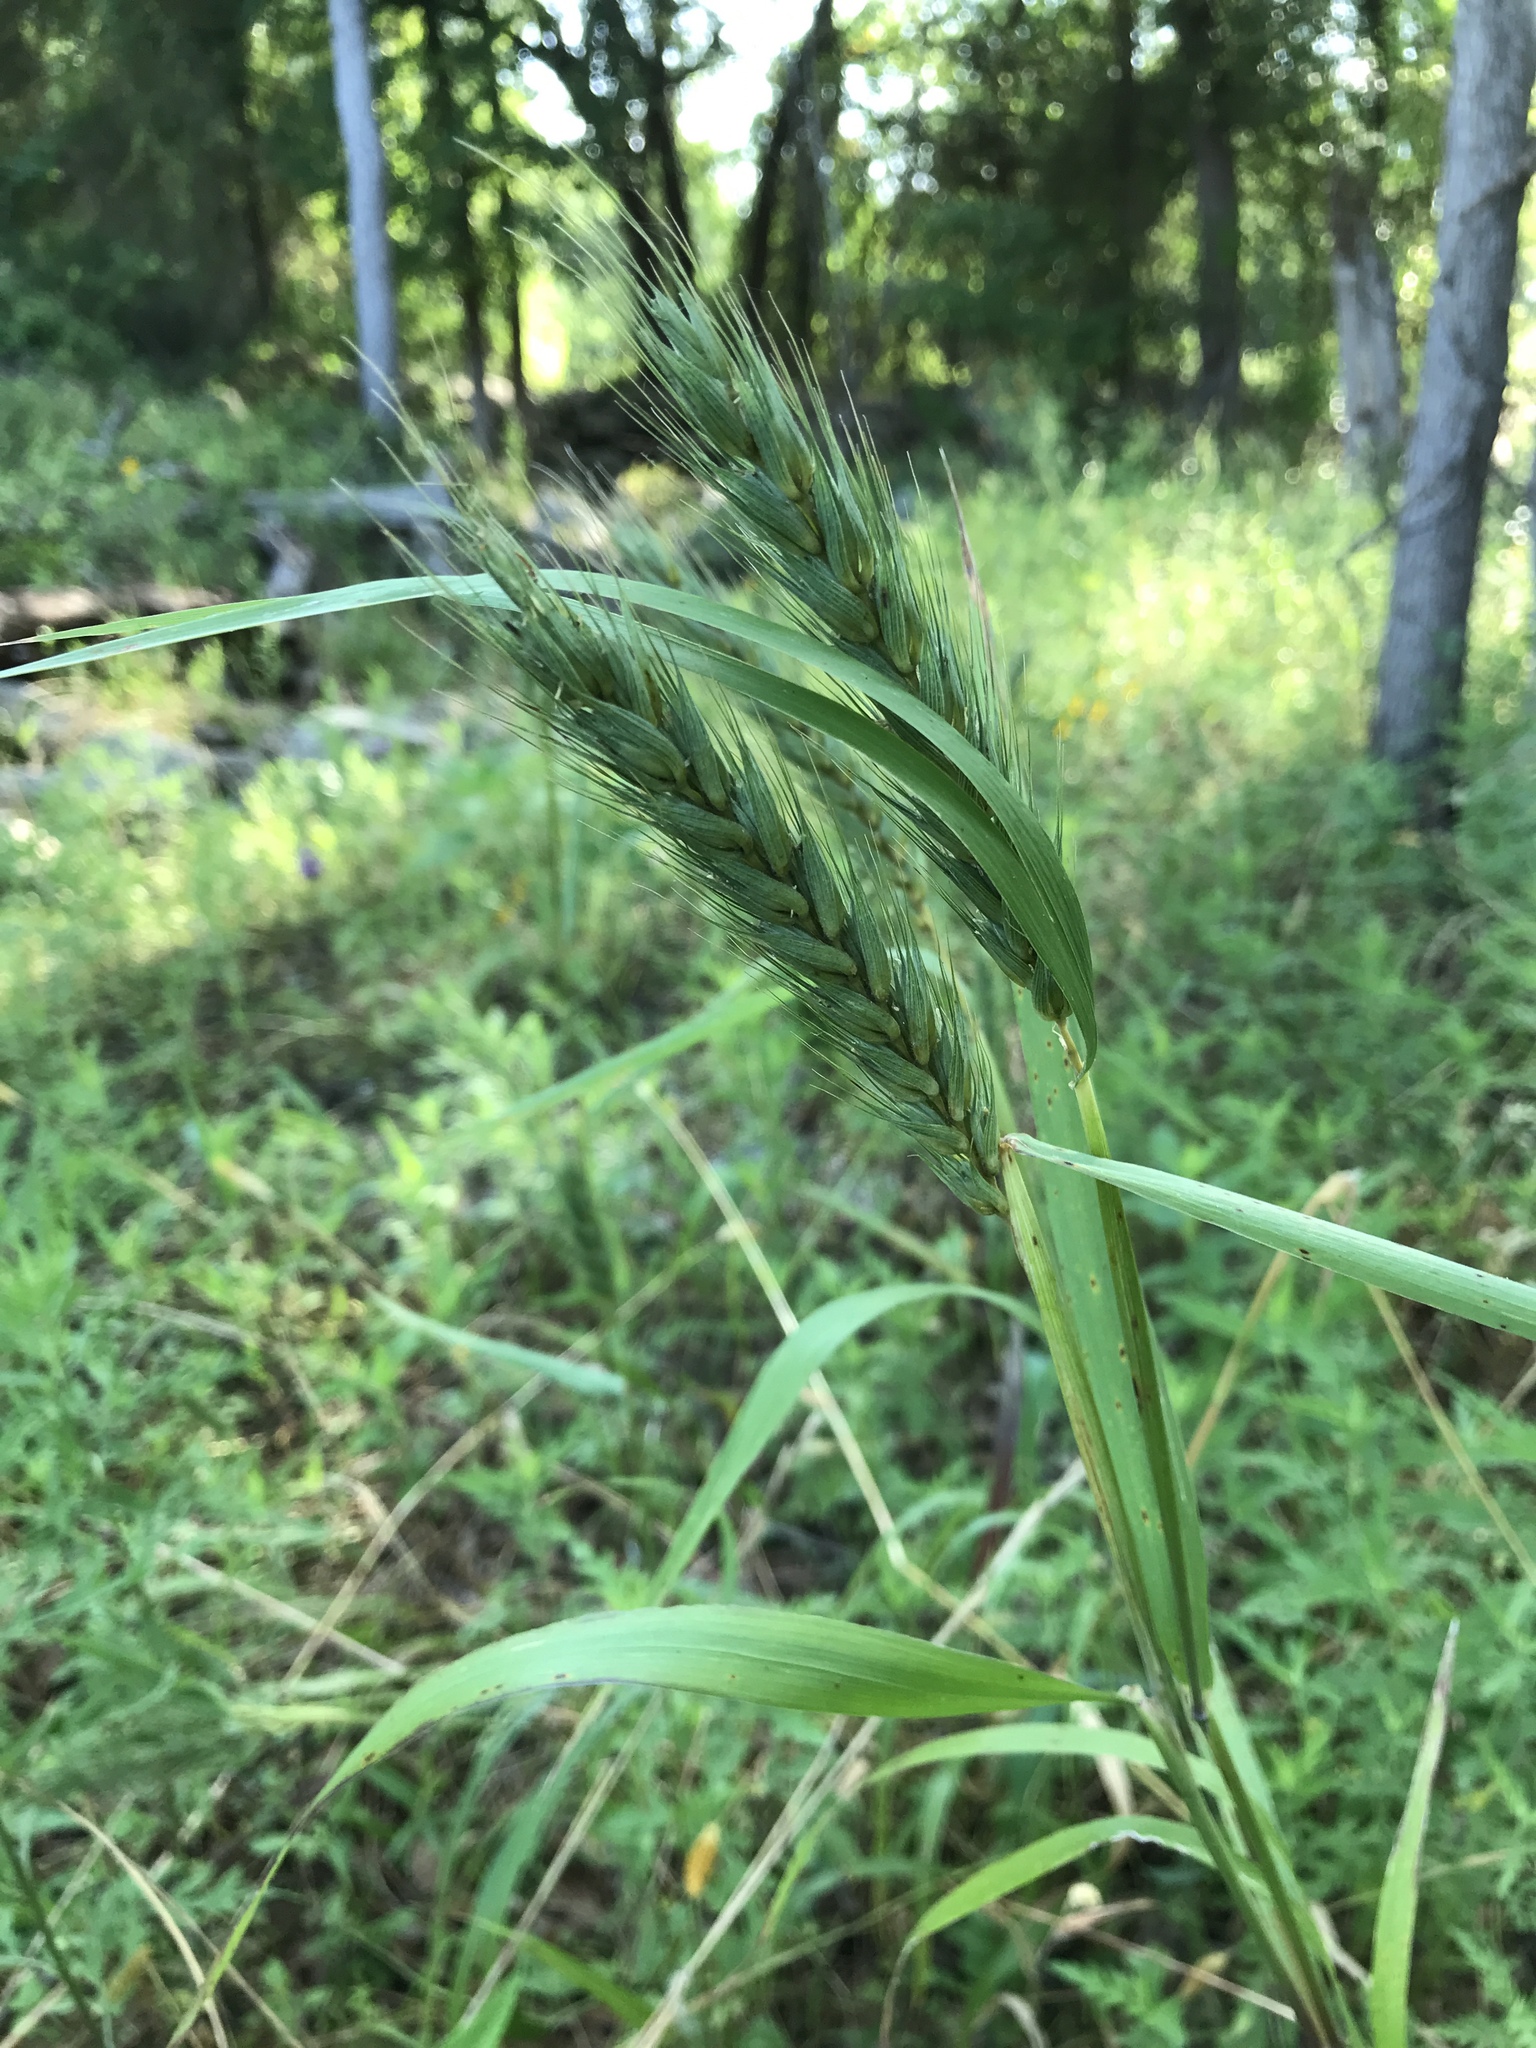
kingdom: Plantae
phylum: Tracheophyta
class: Liliopsida
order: Poales
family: Poaceae
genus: Elymus
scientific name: Elymus virginicus
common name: Common eastern wildrye
